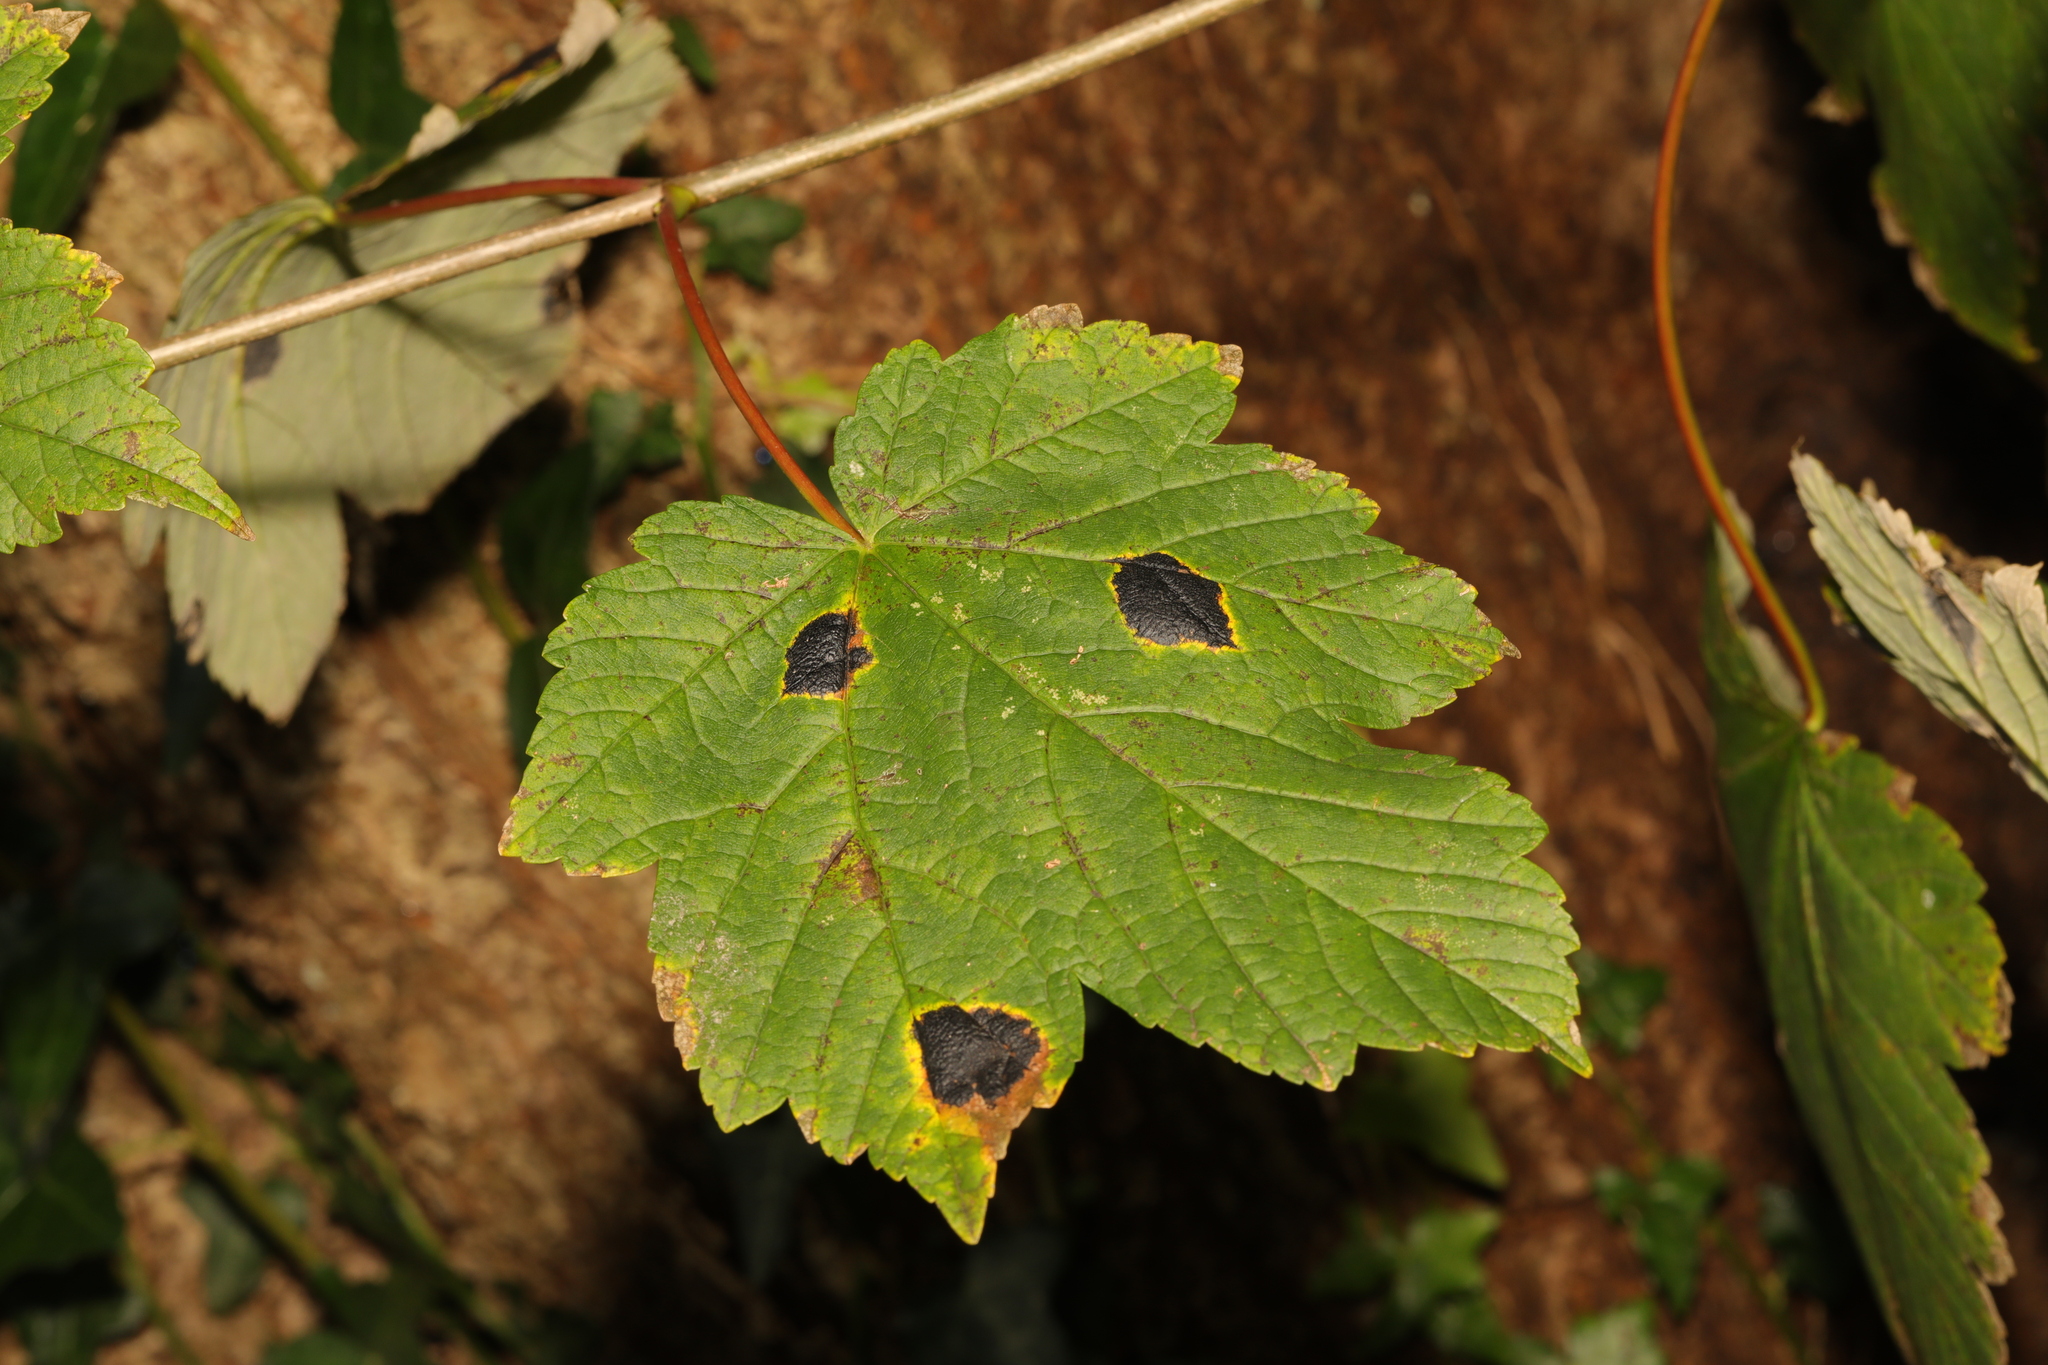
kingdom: Plantae
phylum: Tracheophyta
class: Magnoliopsida
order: Sapindales
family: Sapindaceae
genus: Acer
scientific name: Acer pseudoplatanus
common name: Sycamore
